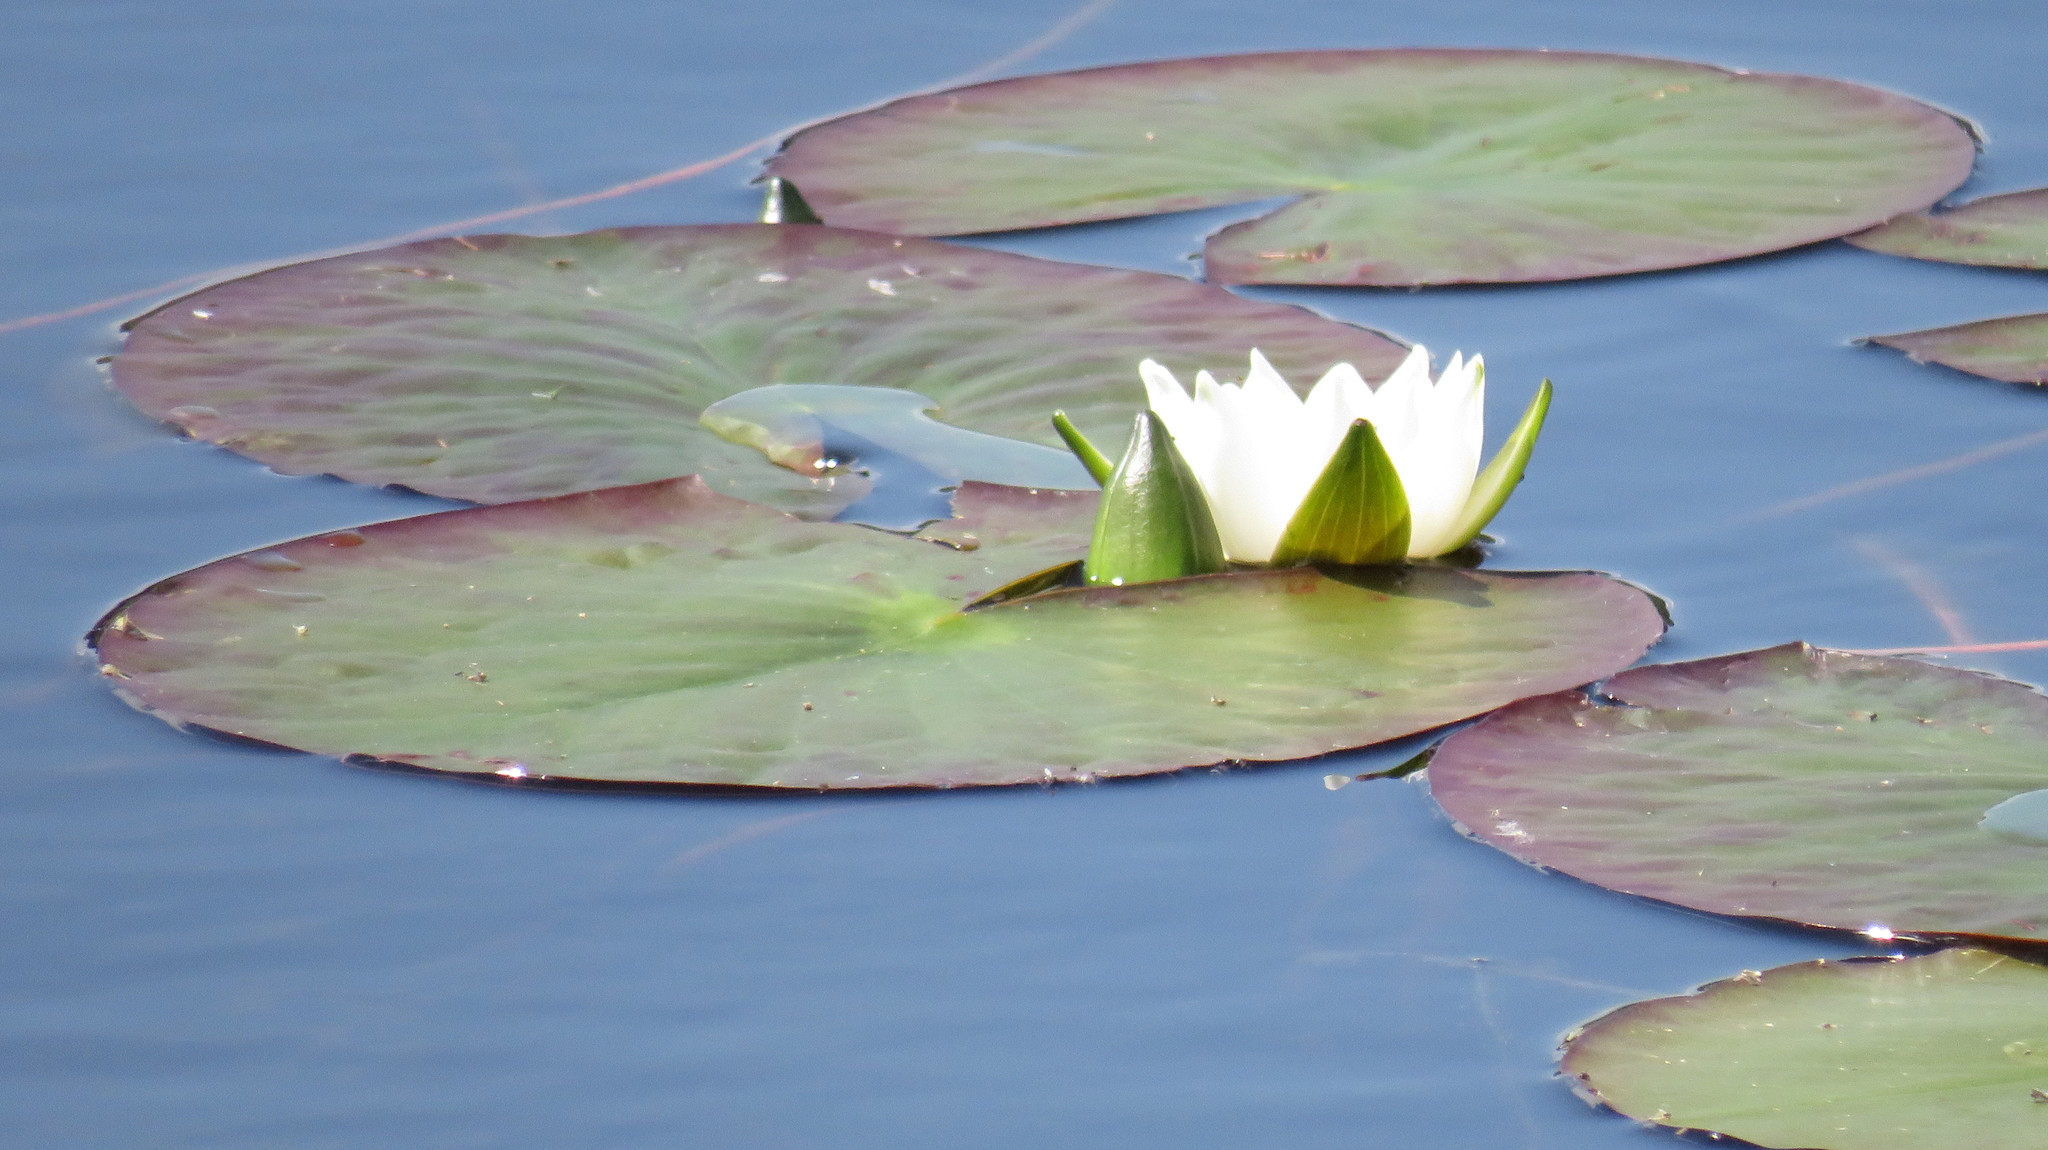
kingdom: Plantae
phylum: Tracheophyta
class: Magnoliopsida
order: Nymphaeales
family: Nymphaeaceae
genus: Nymphaea
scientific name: Nymphaea candida
